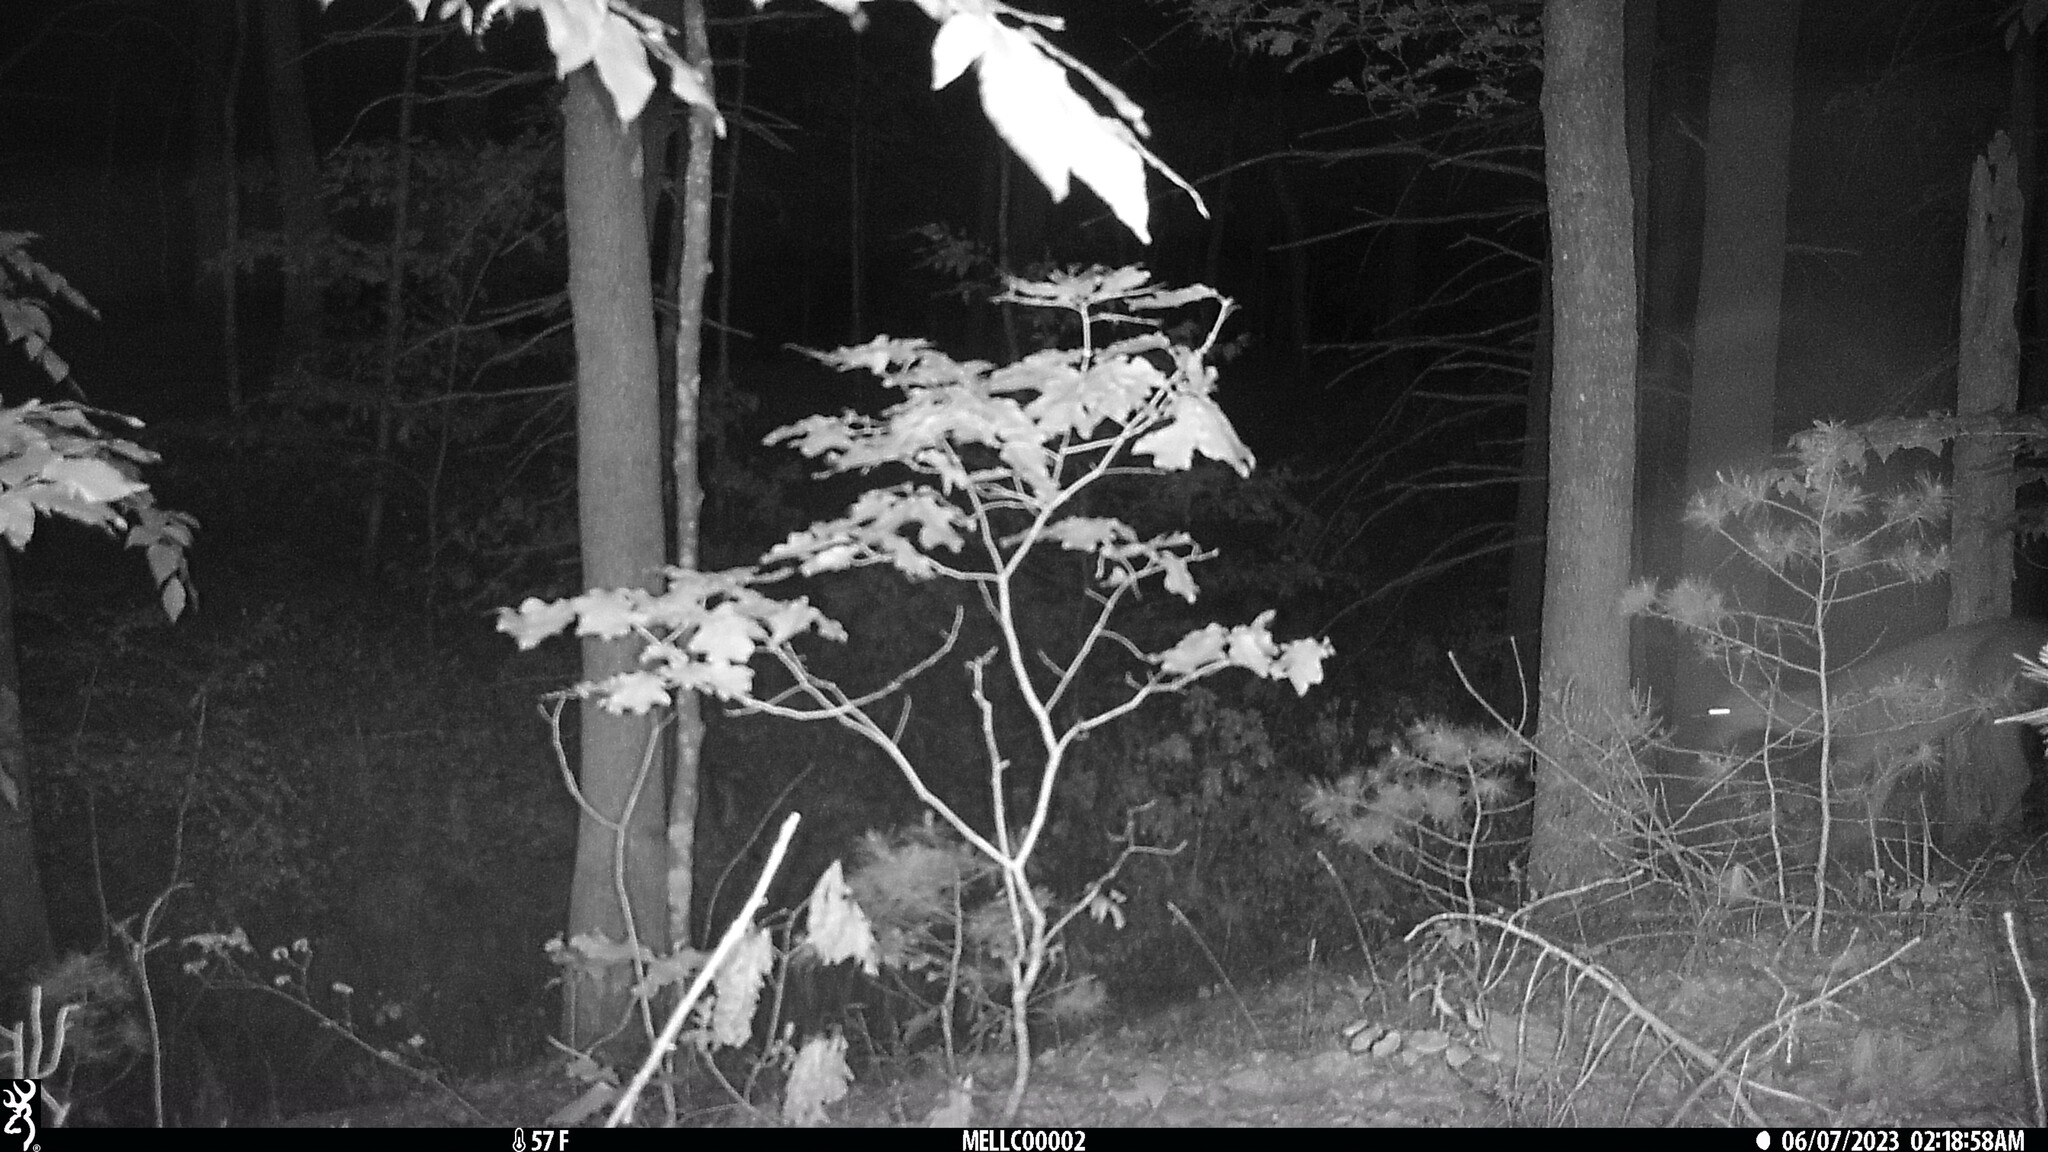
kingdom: Animalia
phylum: Chordata
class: Mammalia
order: Artiodactyla
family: Cervidae
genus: Odocoileus
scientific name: Odocoileus virginianus
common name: White-tailed deer
